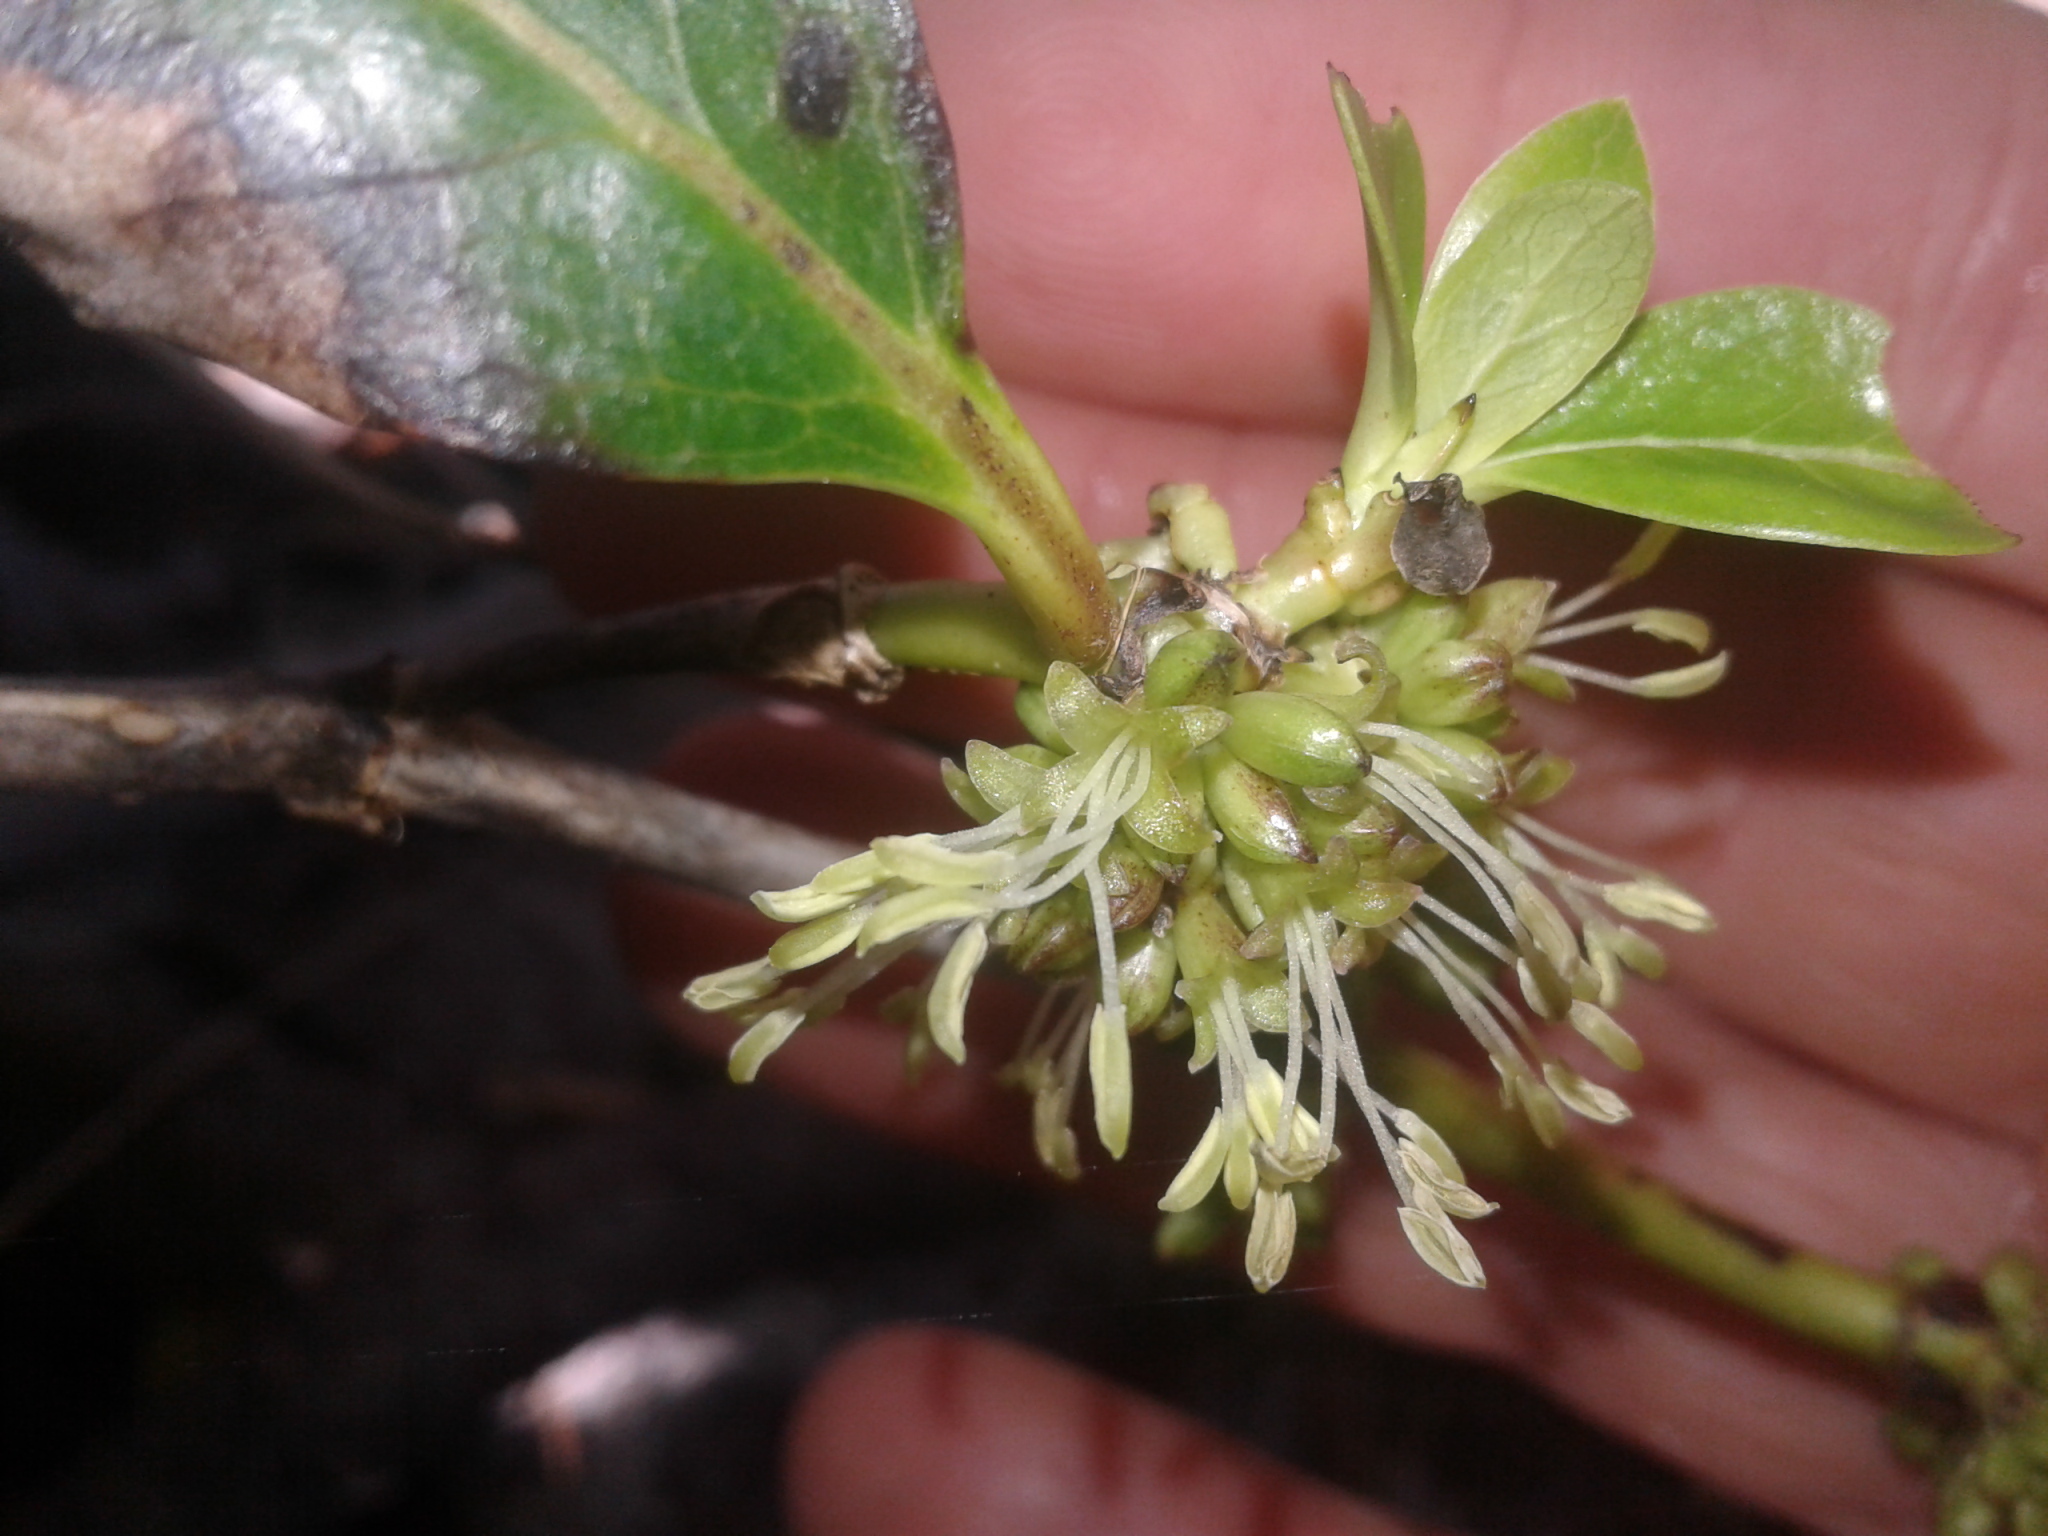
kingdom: Plantae
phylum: Tracheophyta
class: Magnoliopsida
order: Gentianales
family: Rubiaceae
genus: Coprosma
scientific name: Coprosma robusta
